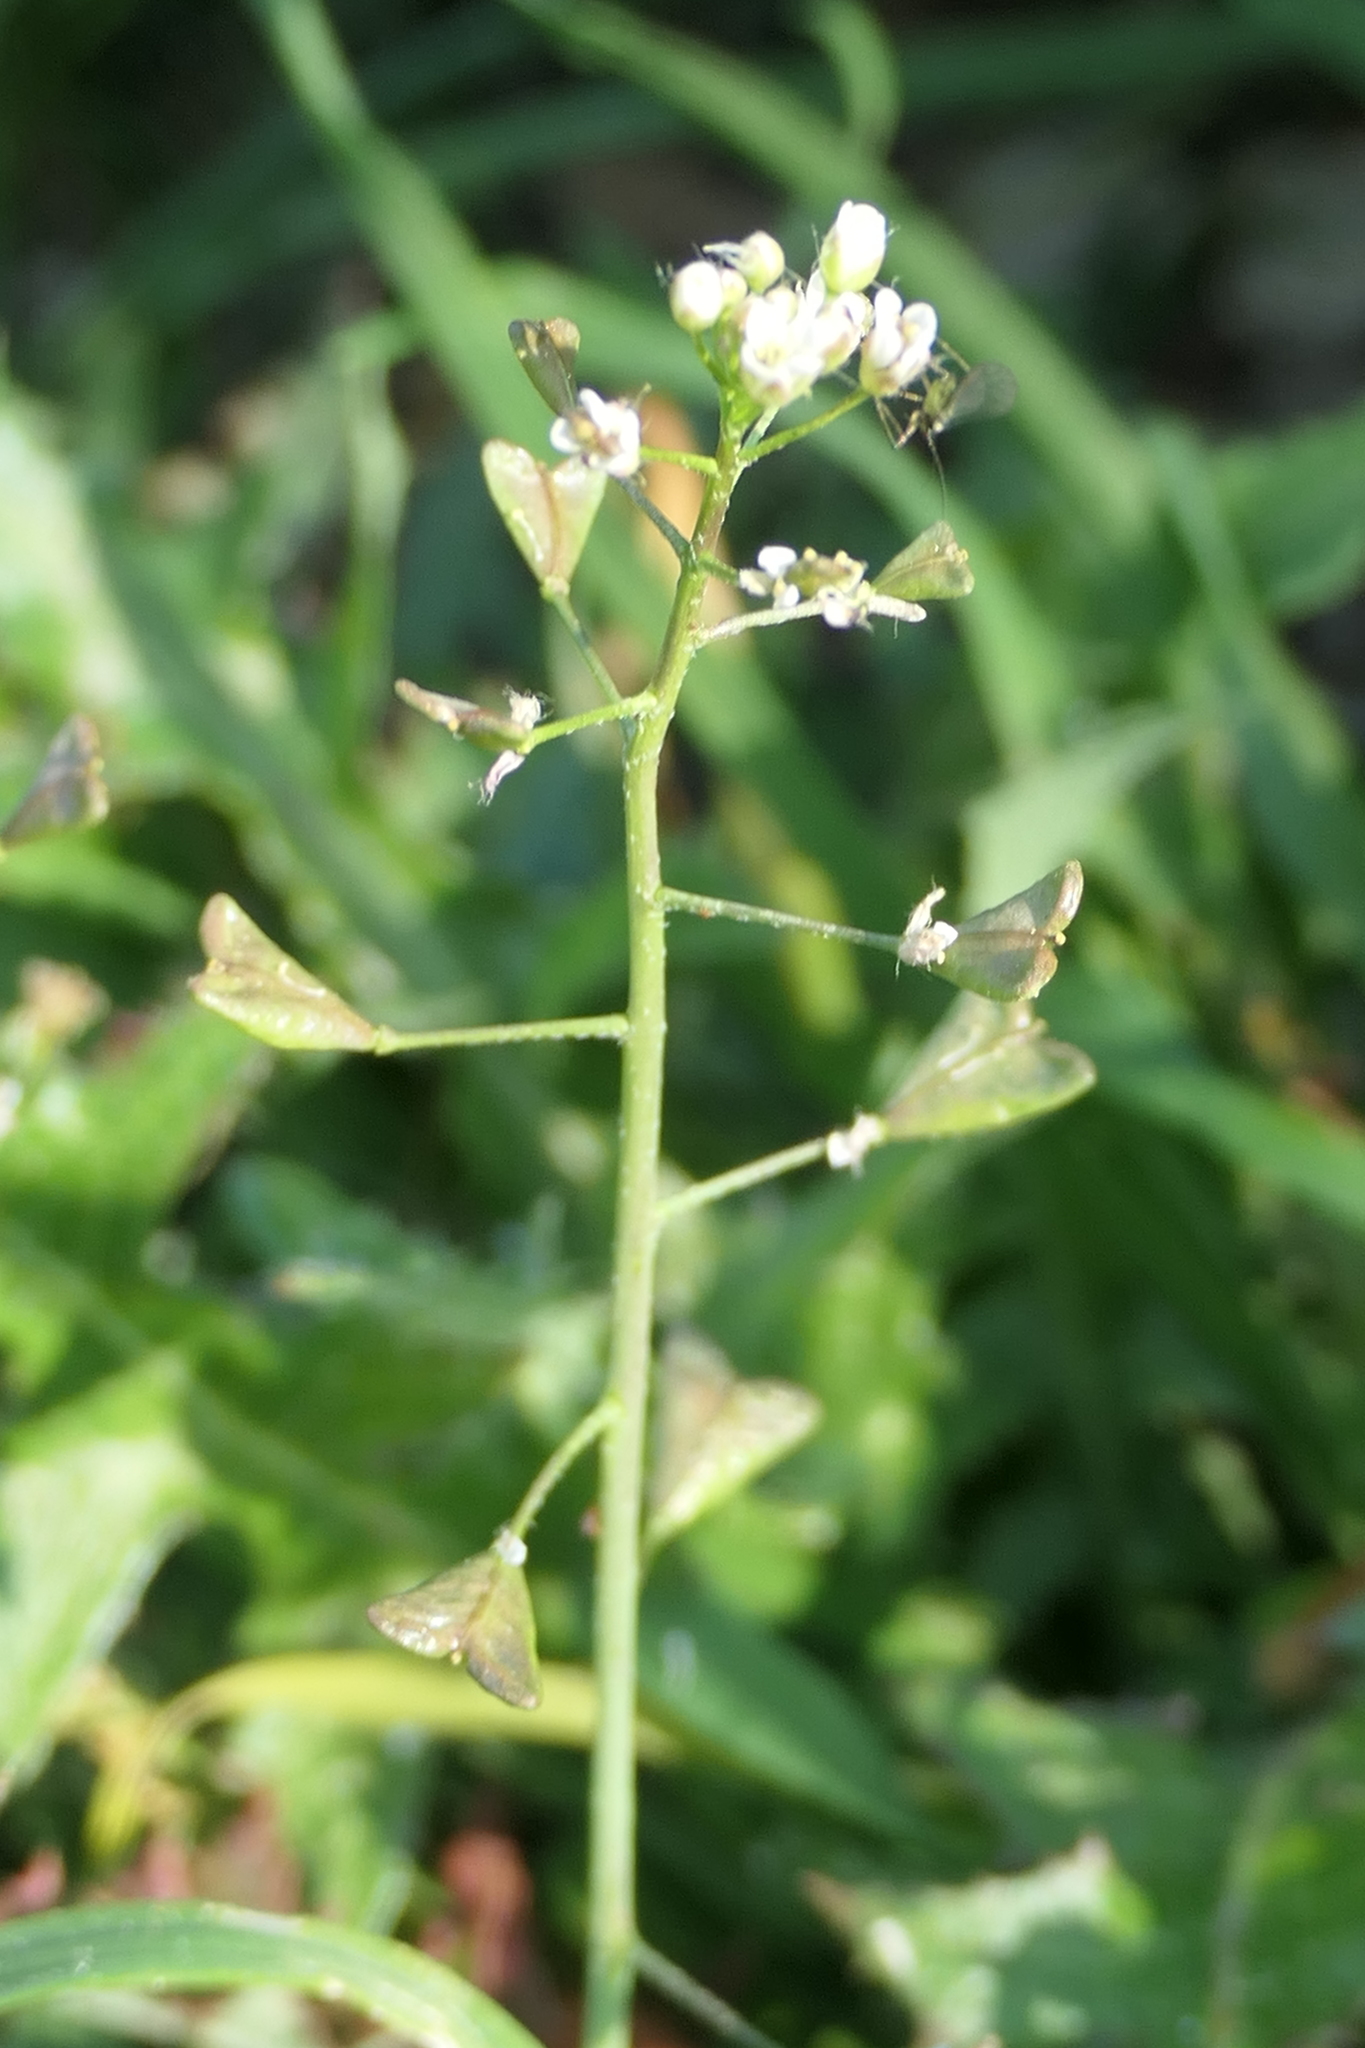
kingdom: Plantae
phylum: Tracheophyta
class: Magnoliopsida
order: Brassicales
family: Brassicaceae
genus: Capsella
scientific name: Capsella bursa-pastoris
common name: Shepherd's purse
